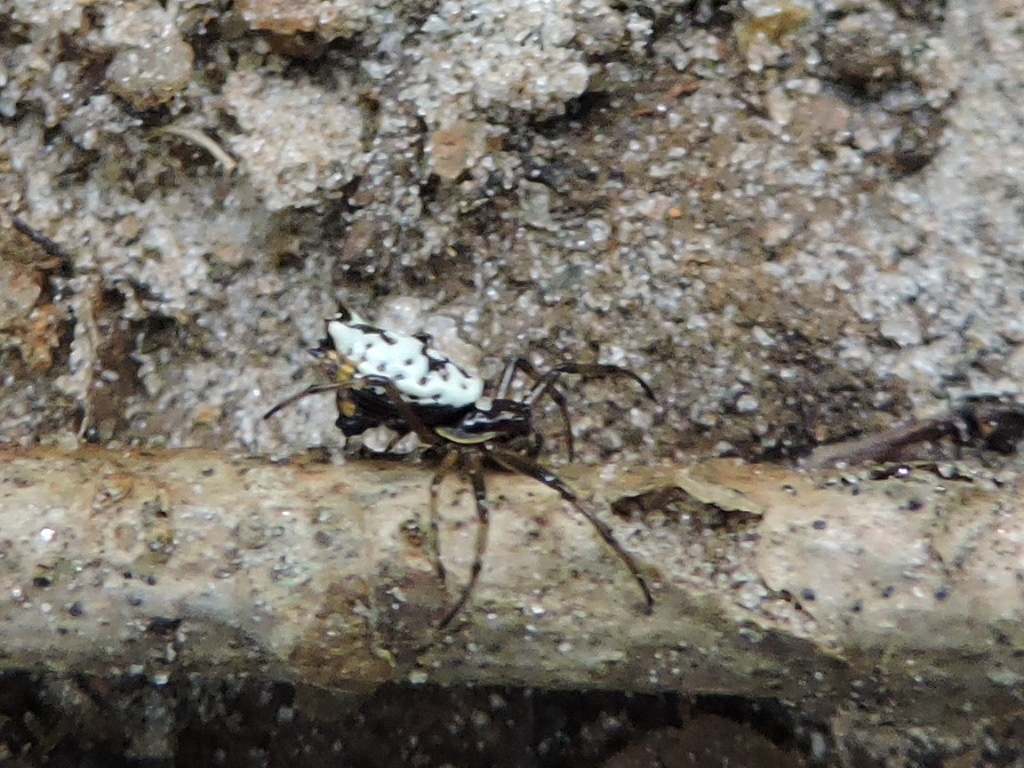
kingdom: Animalia
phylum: Arthropoda
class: Arachnida
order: Araneae
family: Araneidae
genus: Micrathena
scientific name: Micrathena mitrata
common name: Orb weavers
